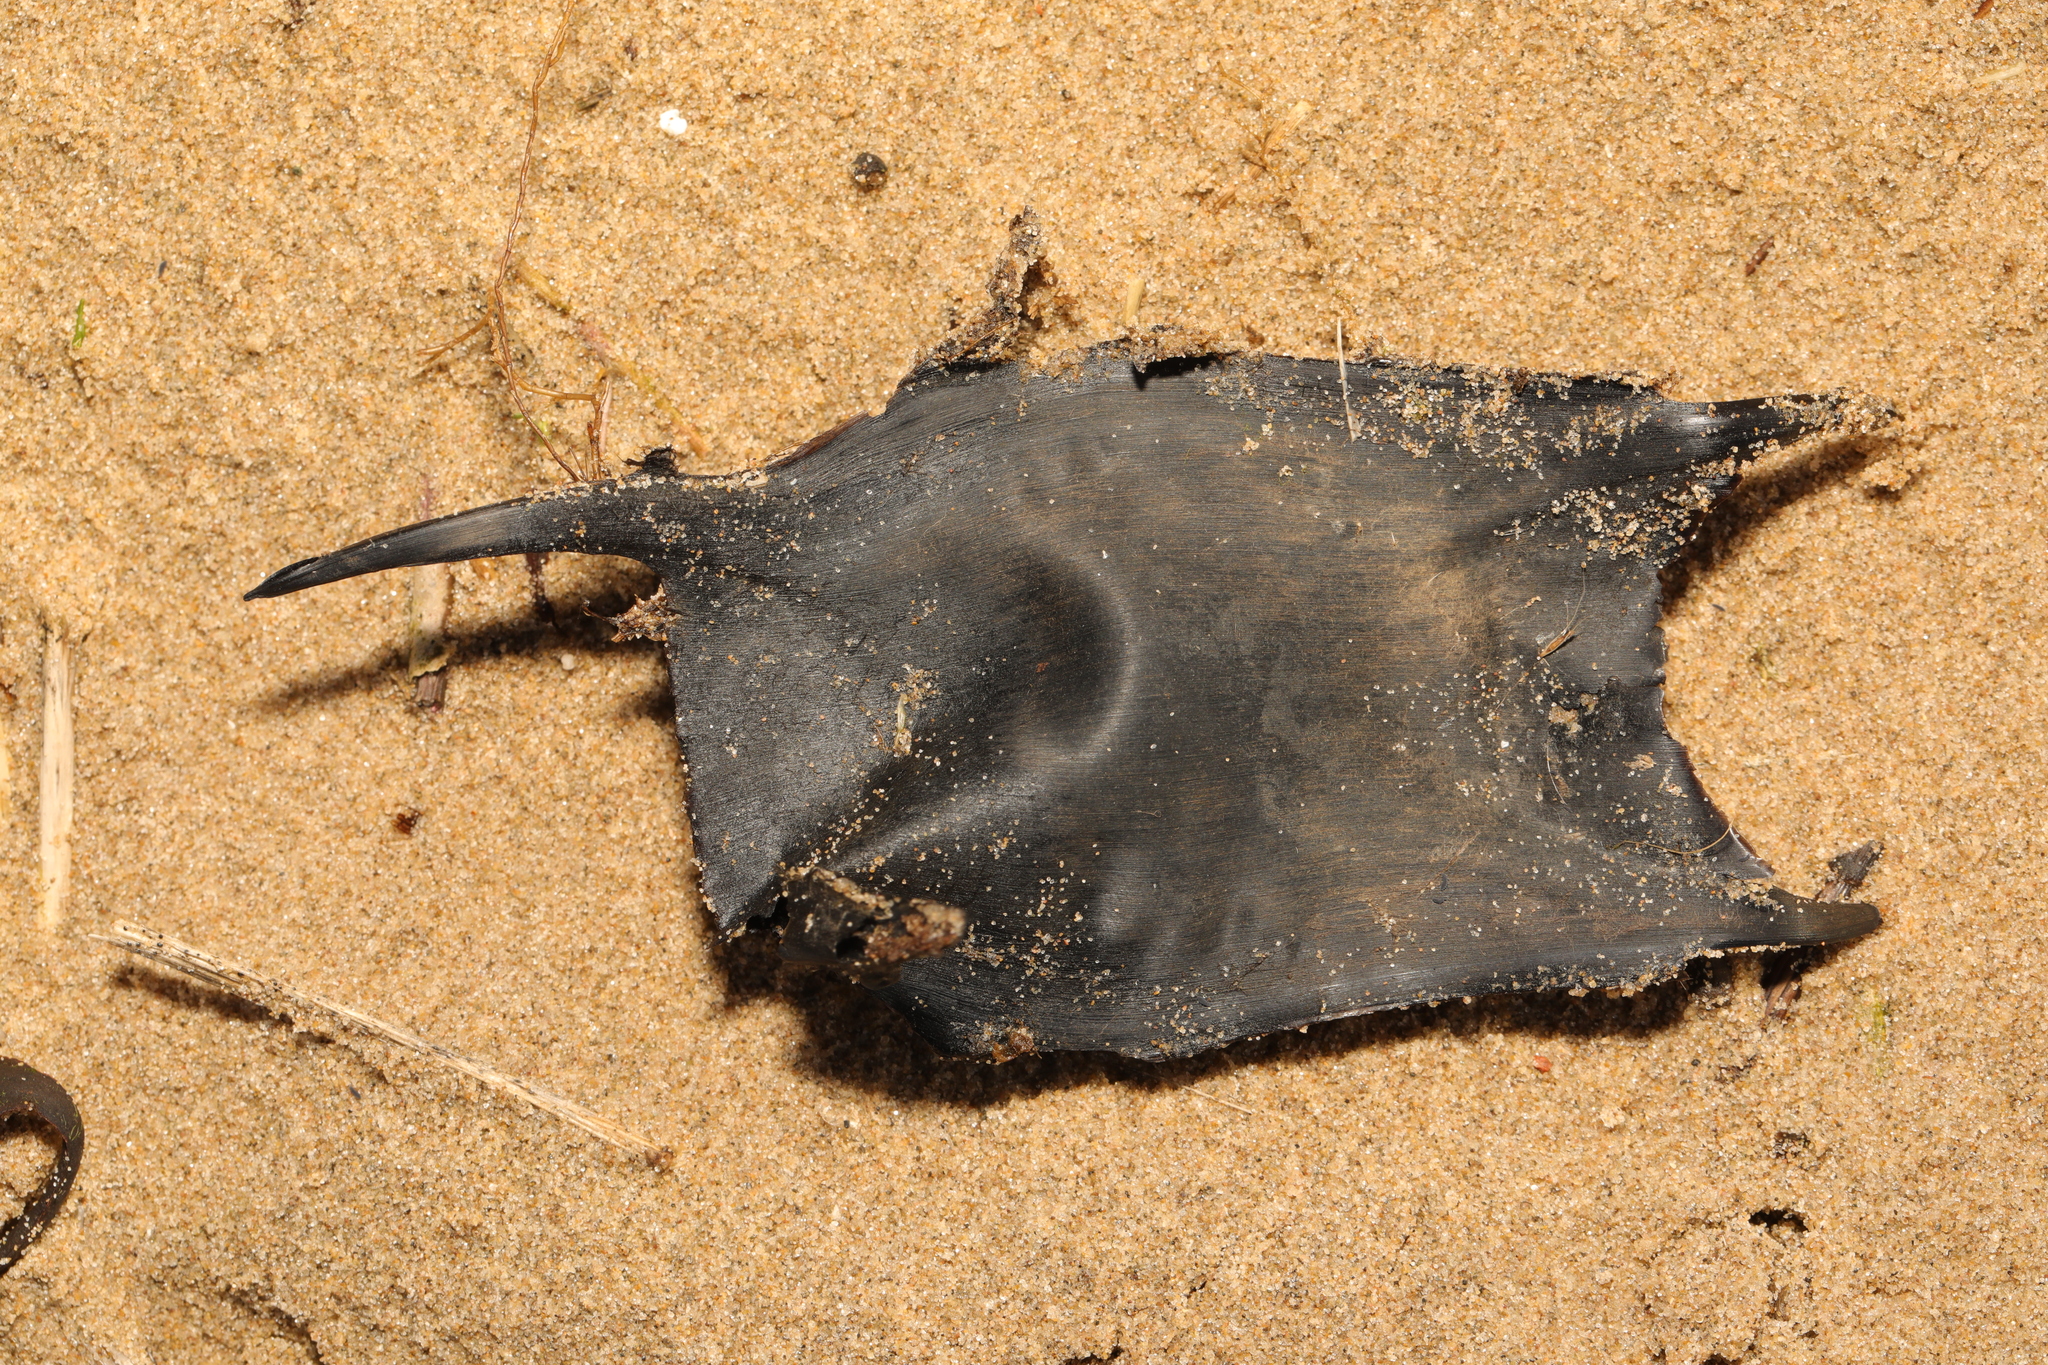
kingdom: Animalia
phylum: Chordata
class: Elasmobranchii
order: Rajiformes
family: Rajidae
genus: Raja
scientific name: Raja clavata
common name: Thornback ray
